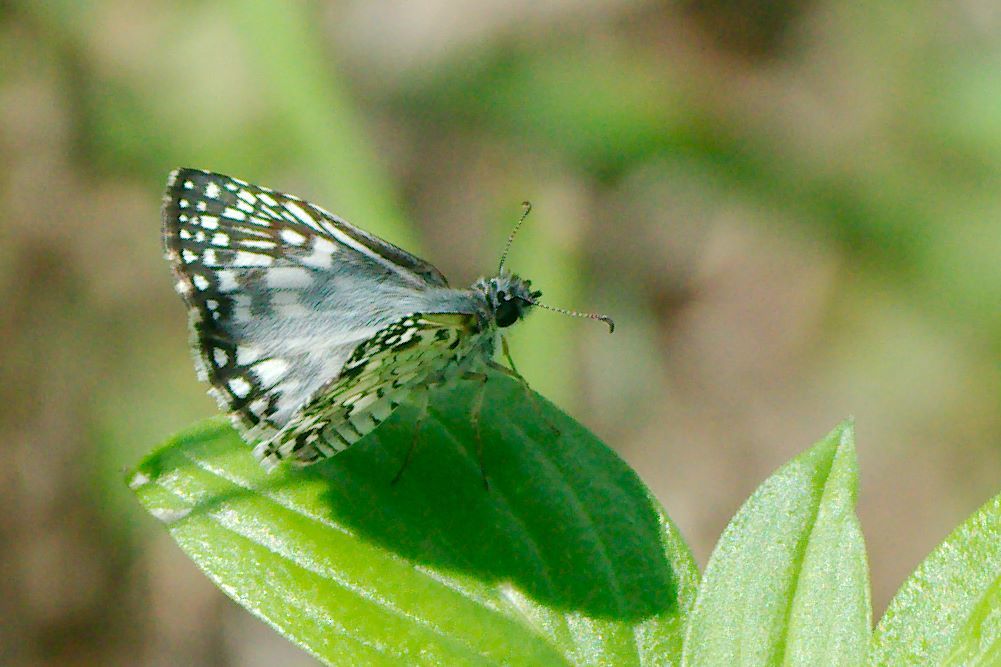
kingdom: Animalia
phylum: Arthropoda
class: Insecta
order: Lepidoptera
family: Hesperiidae
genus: Pyrgus
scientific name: Pyrgus oileus
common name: Tropical checkered-skipper
